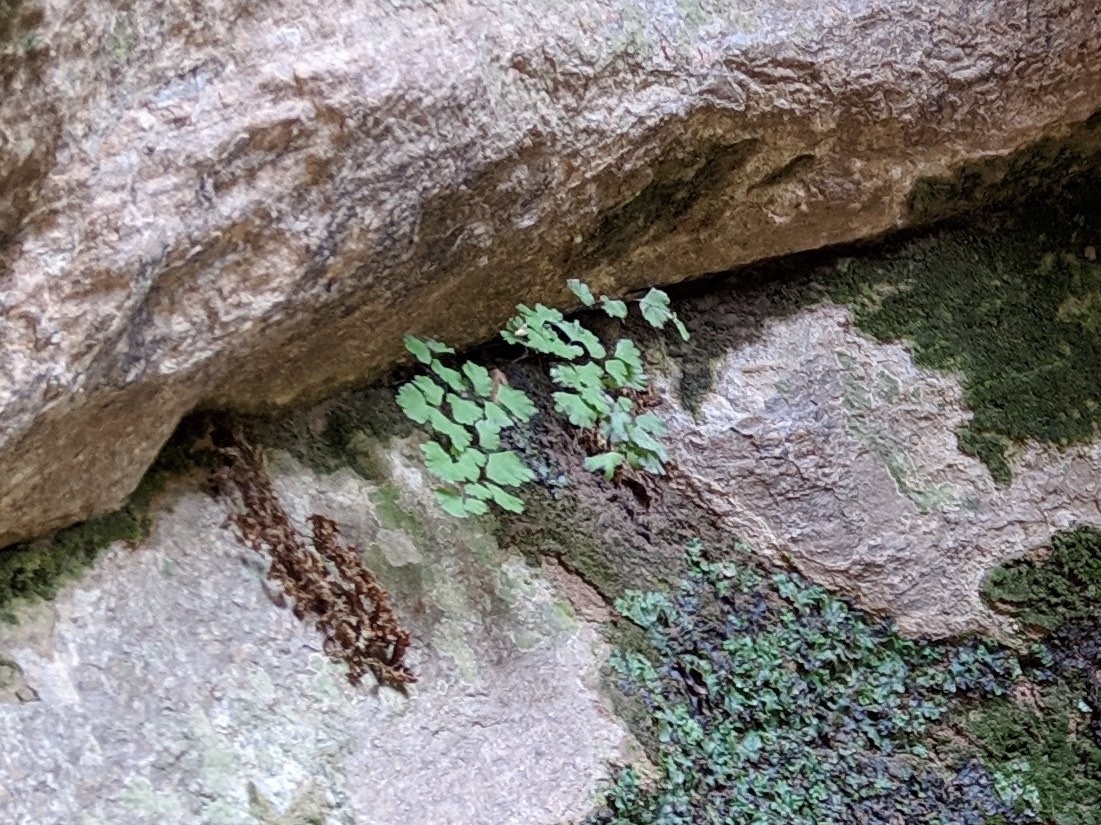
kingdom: Plantae
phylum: Tracheophyta
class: Polypodiopsida
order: Polypodiales
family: Pteridaceae
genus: Adiantum
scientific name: Adiantum capillus-veneris
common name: Maidenhair fern
